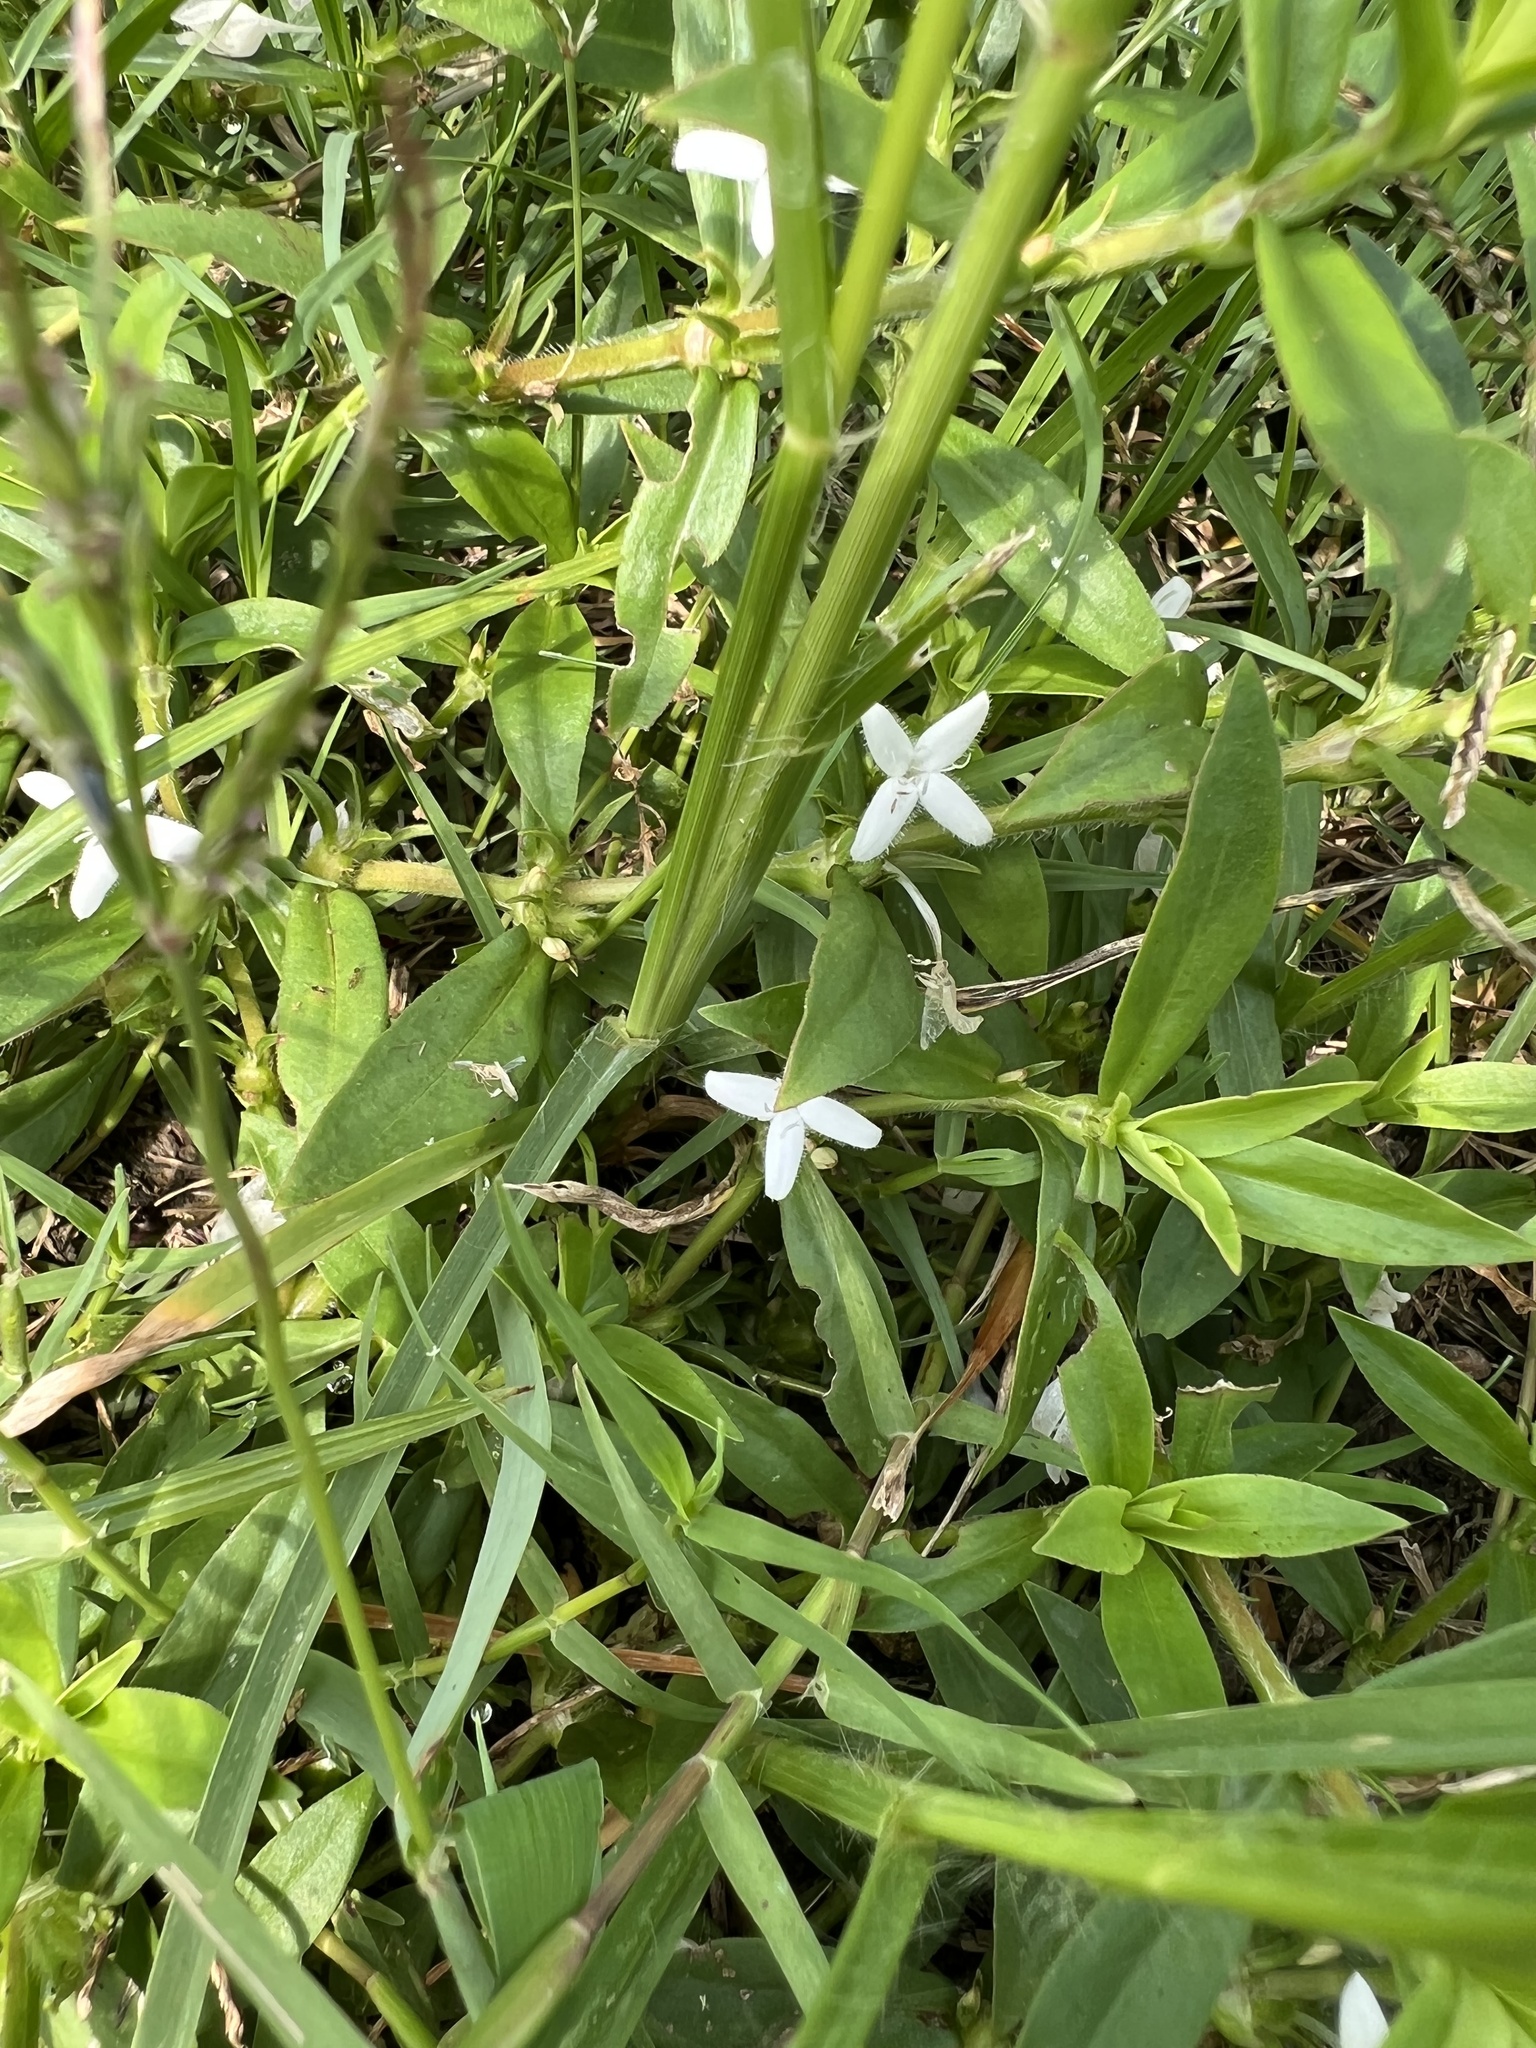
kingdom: Plantae
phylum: Tracheophyta
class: Magnoliopsida
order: Gentianales
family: Rubiaceae
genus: Diodia
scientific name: Diodia virginiana
